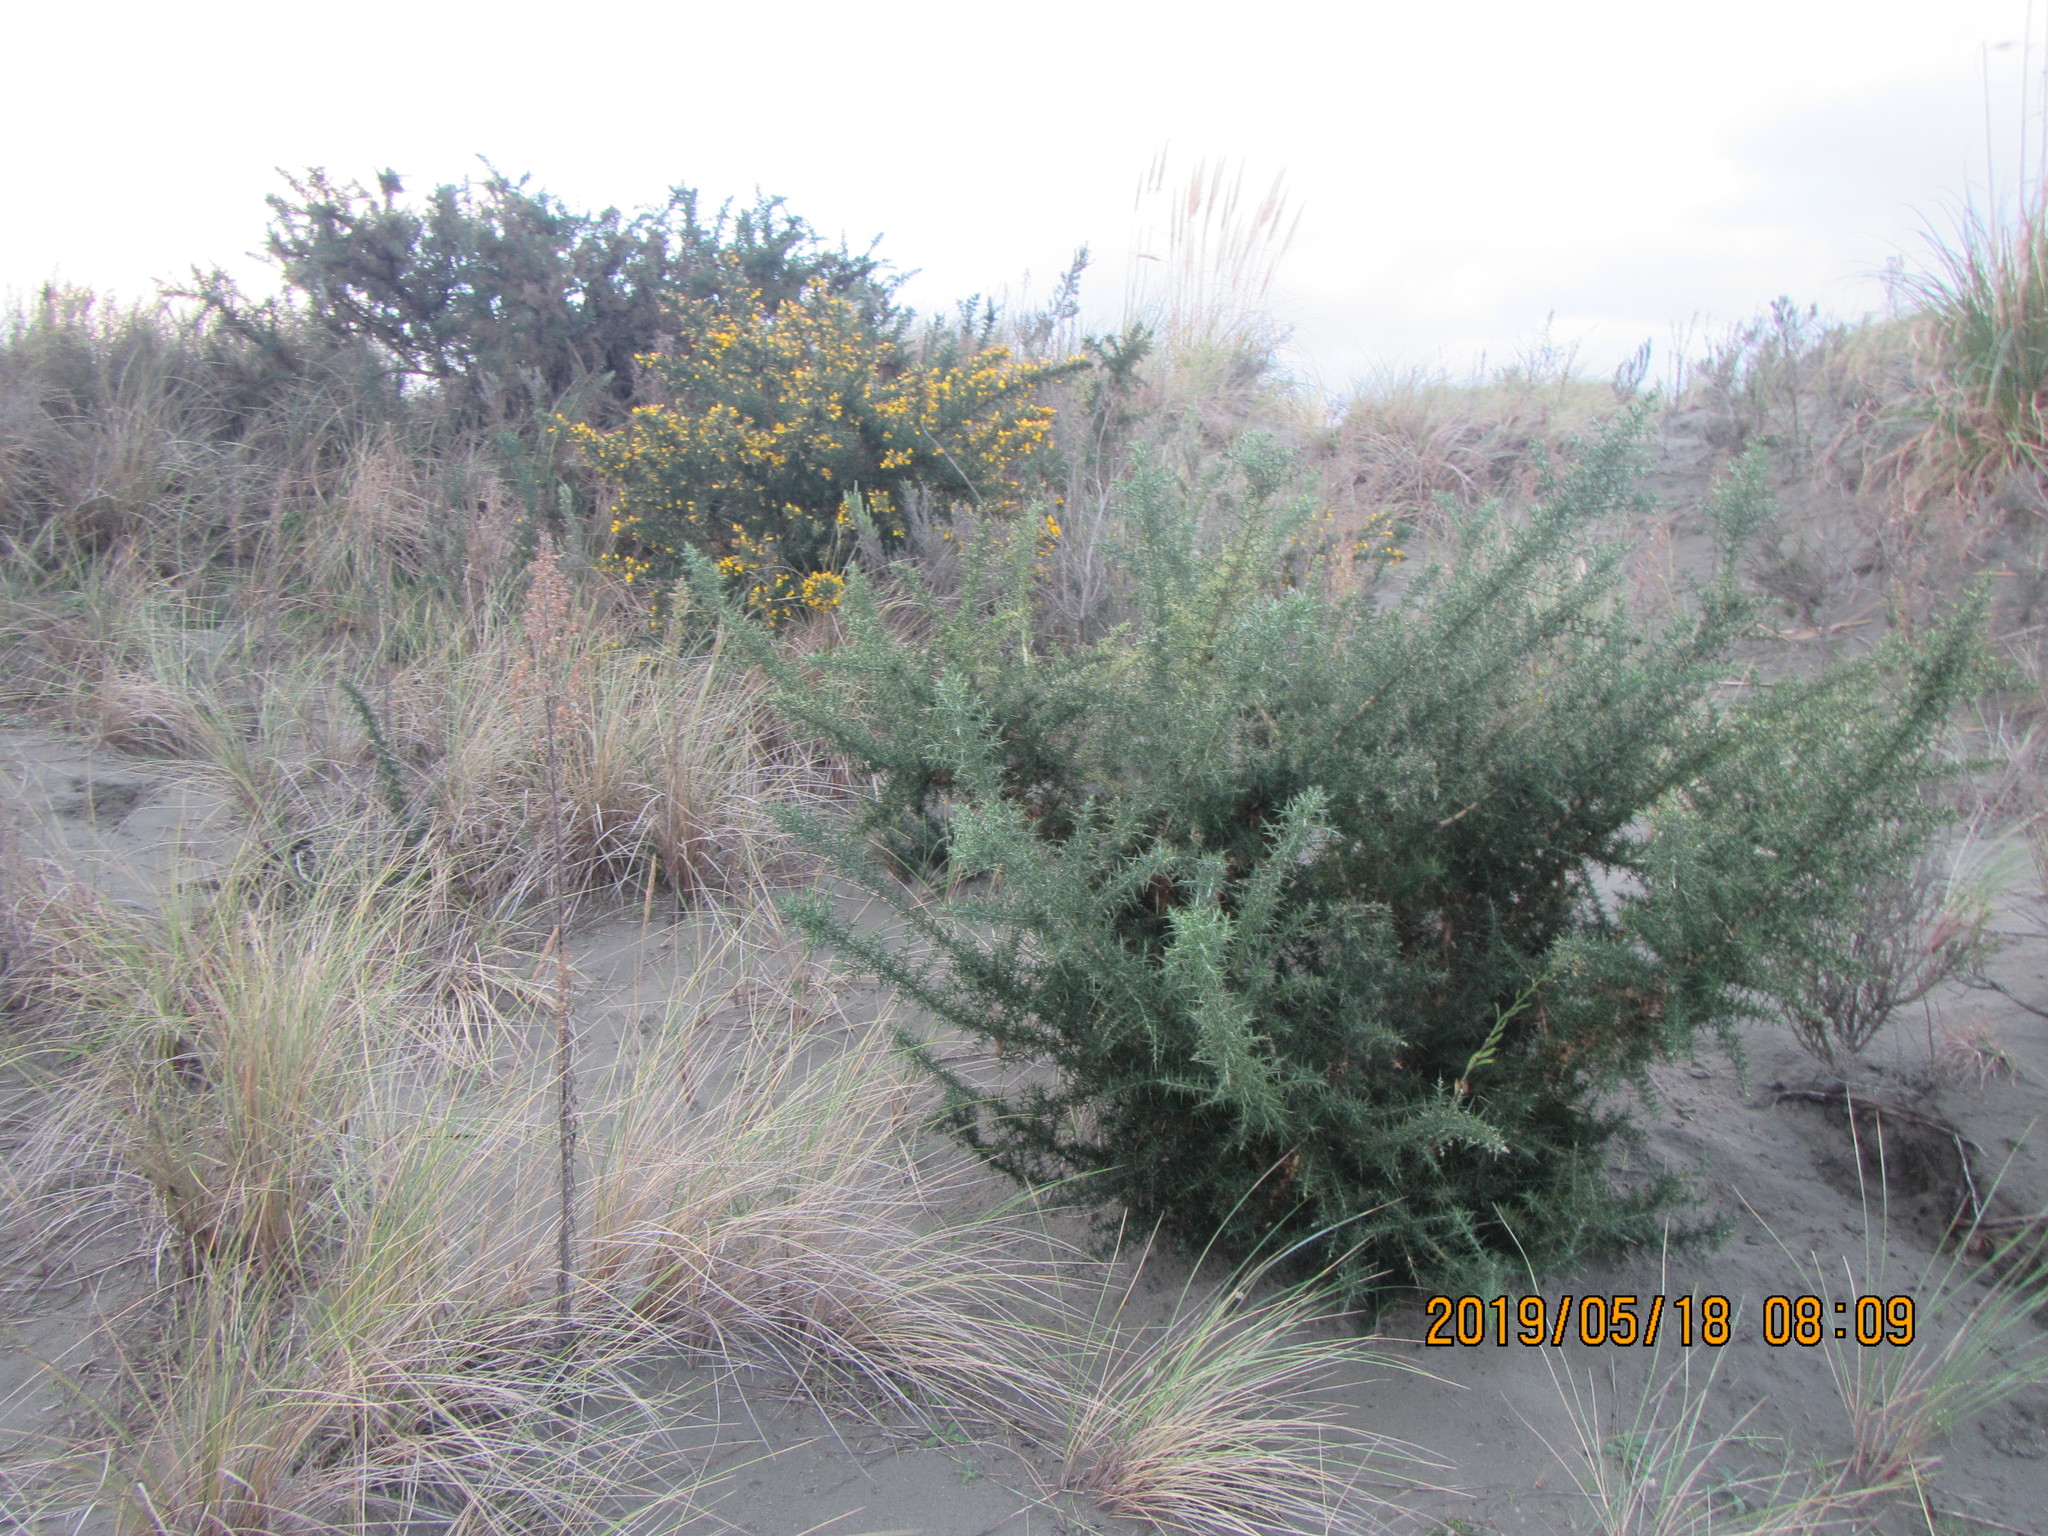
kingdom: Plantae
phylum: Tracheophyta
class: Magnoliopsida
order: Fabales
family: Fabaceae
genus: Ulex
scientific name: Ulex europaeus
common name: Common gorse
